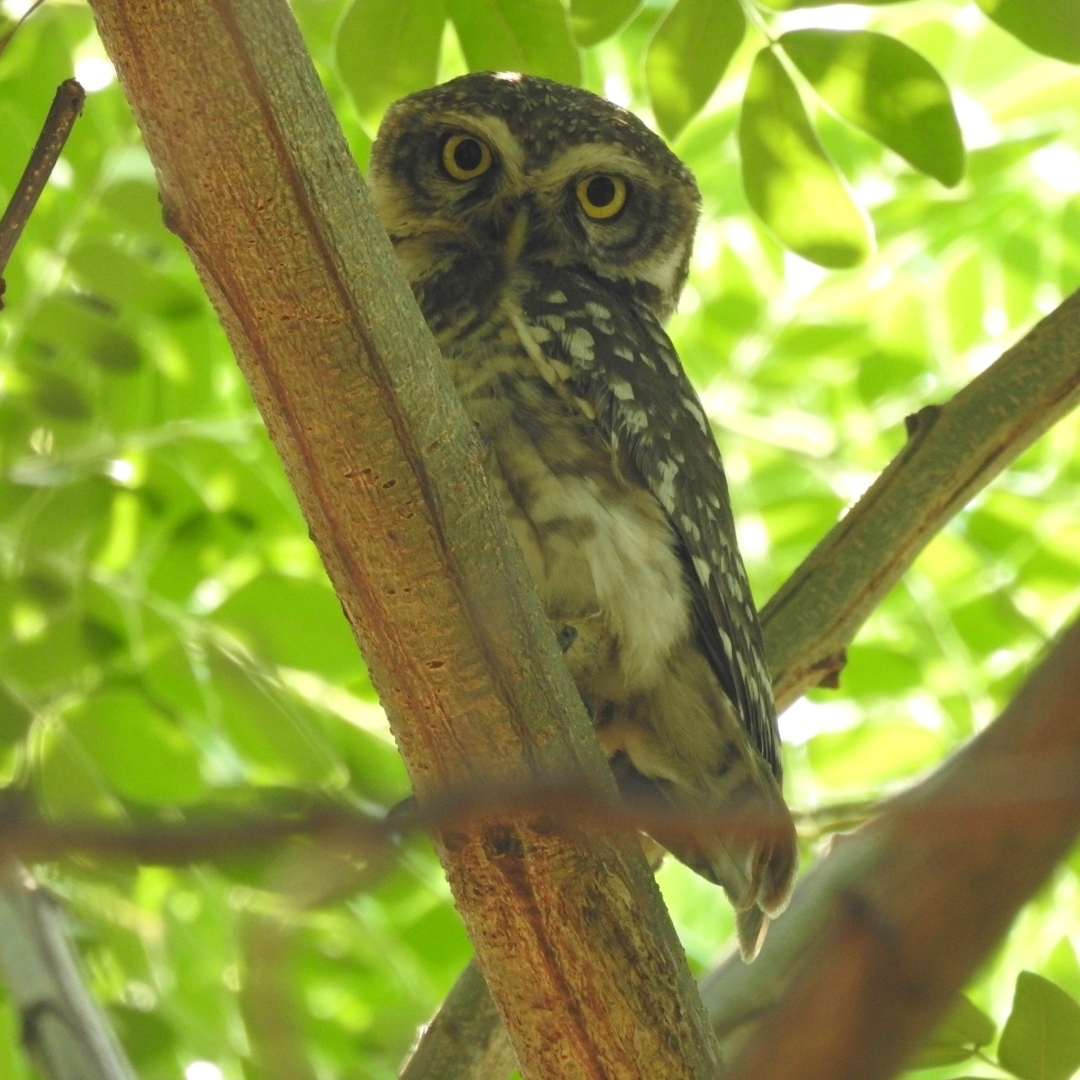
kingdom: Animalia
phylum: Chordata
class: Aves
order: Strigiformes
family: Strigidae
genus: Athene
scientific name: Athene brama
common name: Spotted owlet
